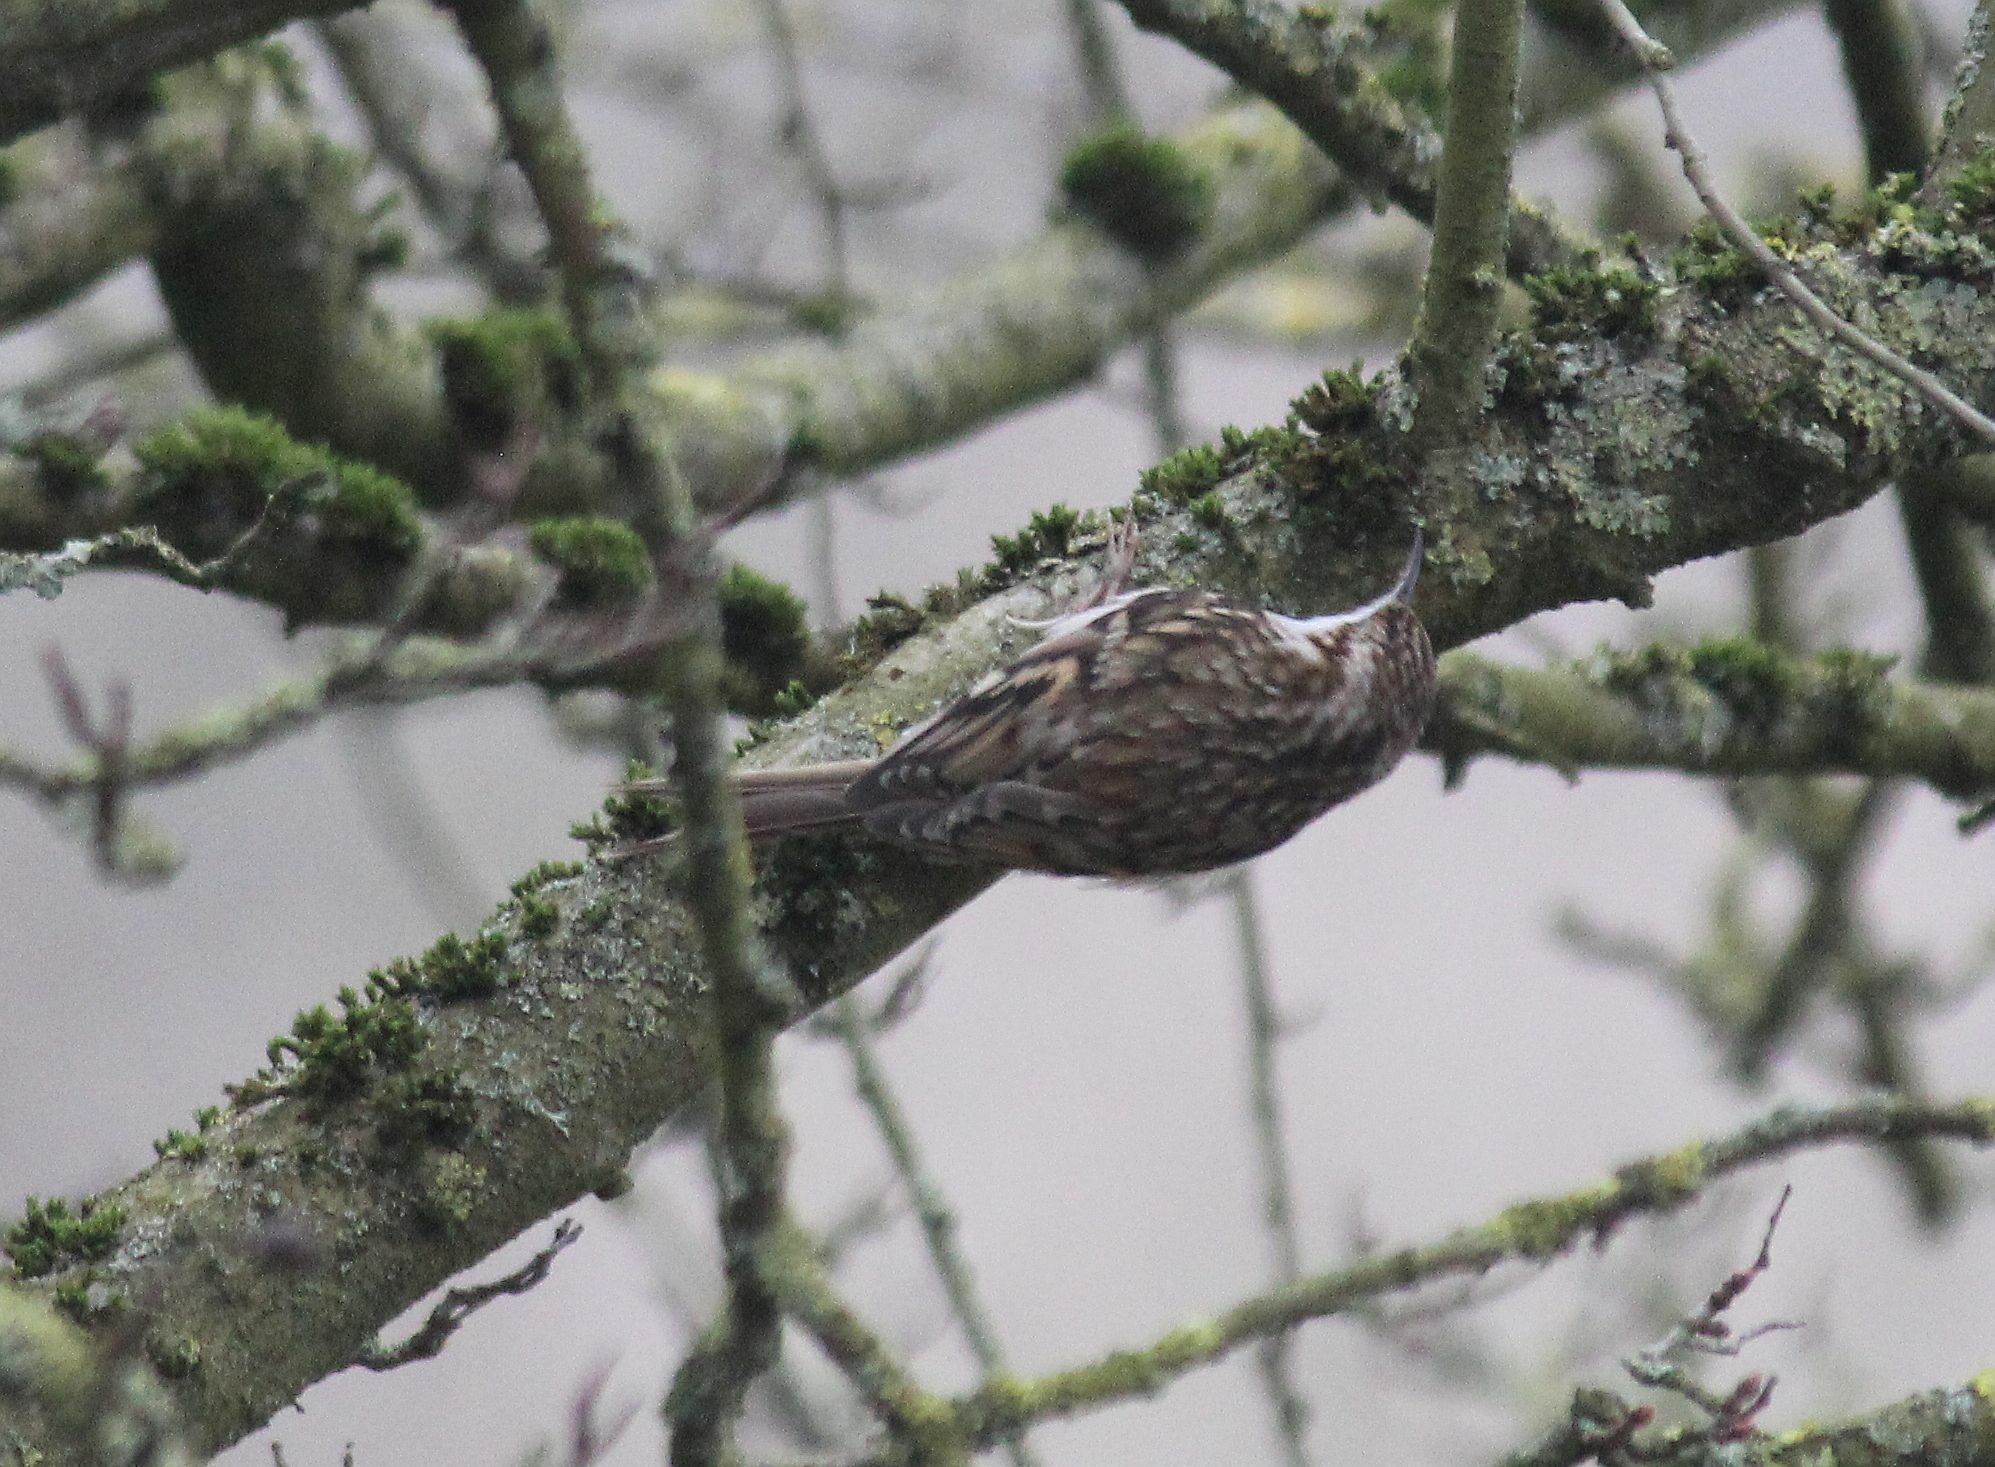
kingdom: Animalia
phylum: Chordata
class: Aves
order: Passeriformes
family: Certhiidae
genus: Certhia
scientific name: Certhia familiaris
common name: Eurasian treecreeper
